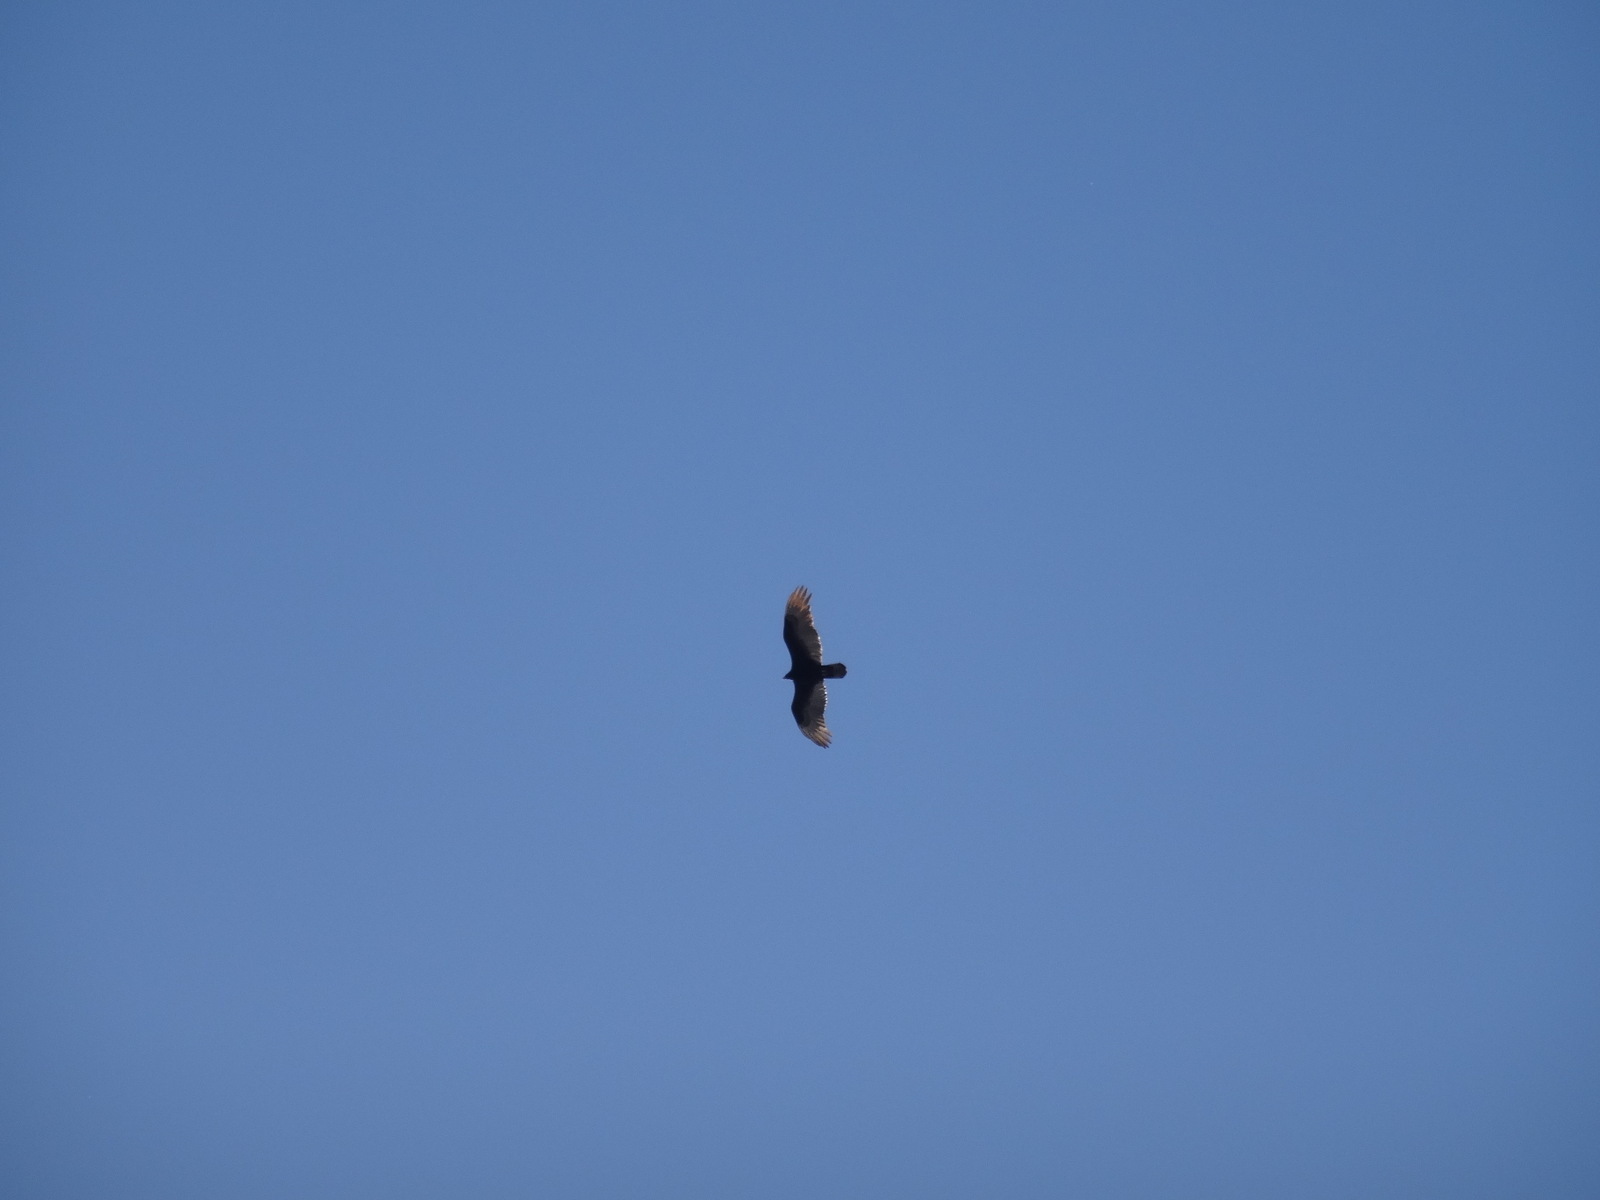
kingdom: Animalia
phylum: Chordata
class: Aves
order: Accipitriformes
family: Cathartidae
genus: Cathartes
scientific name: Cathartes aura
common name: Turkey vulture
